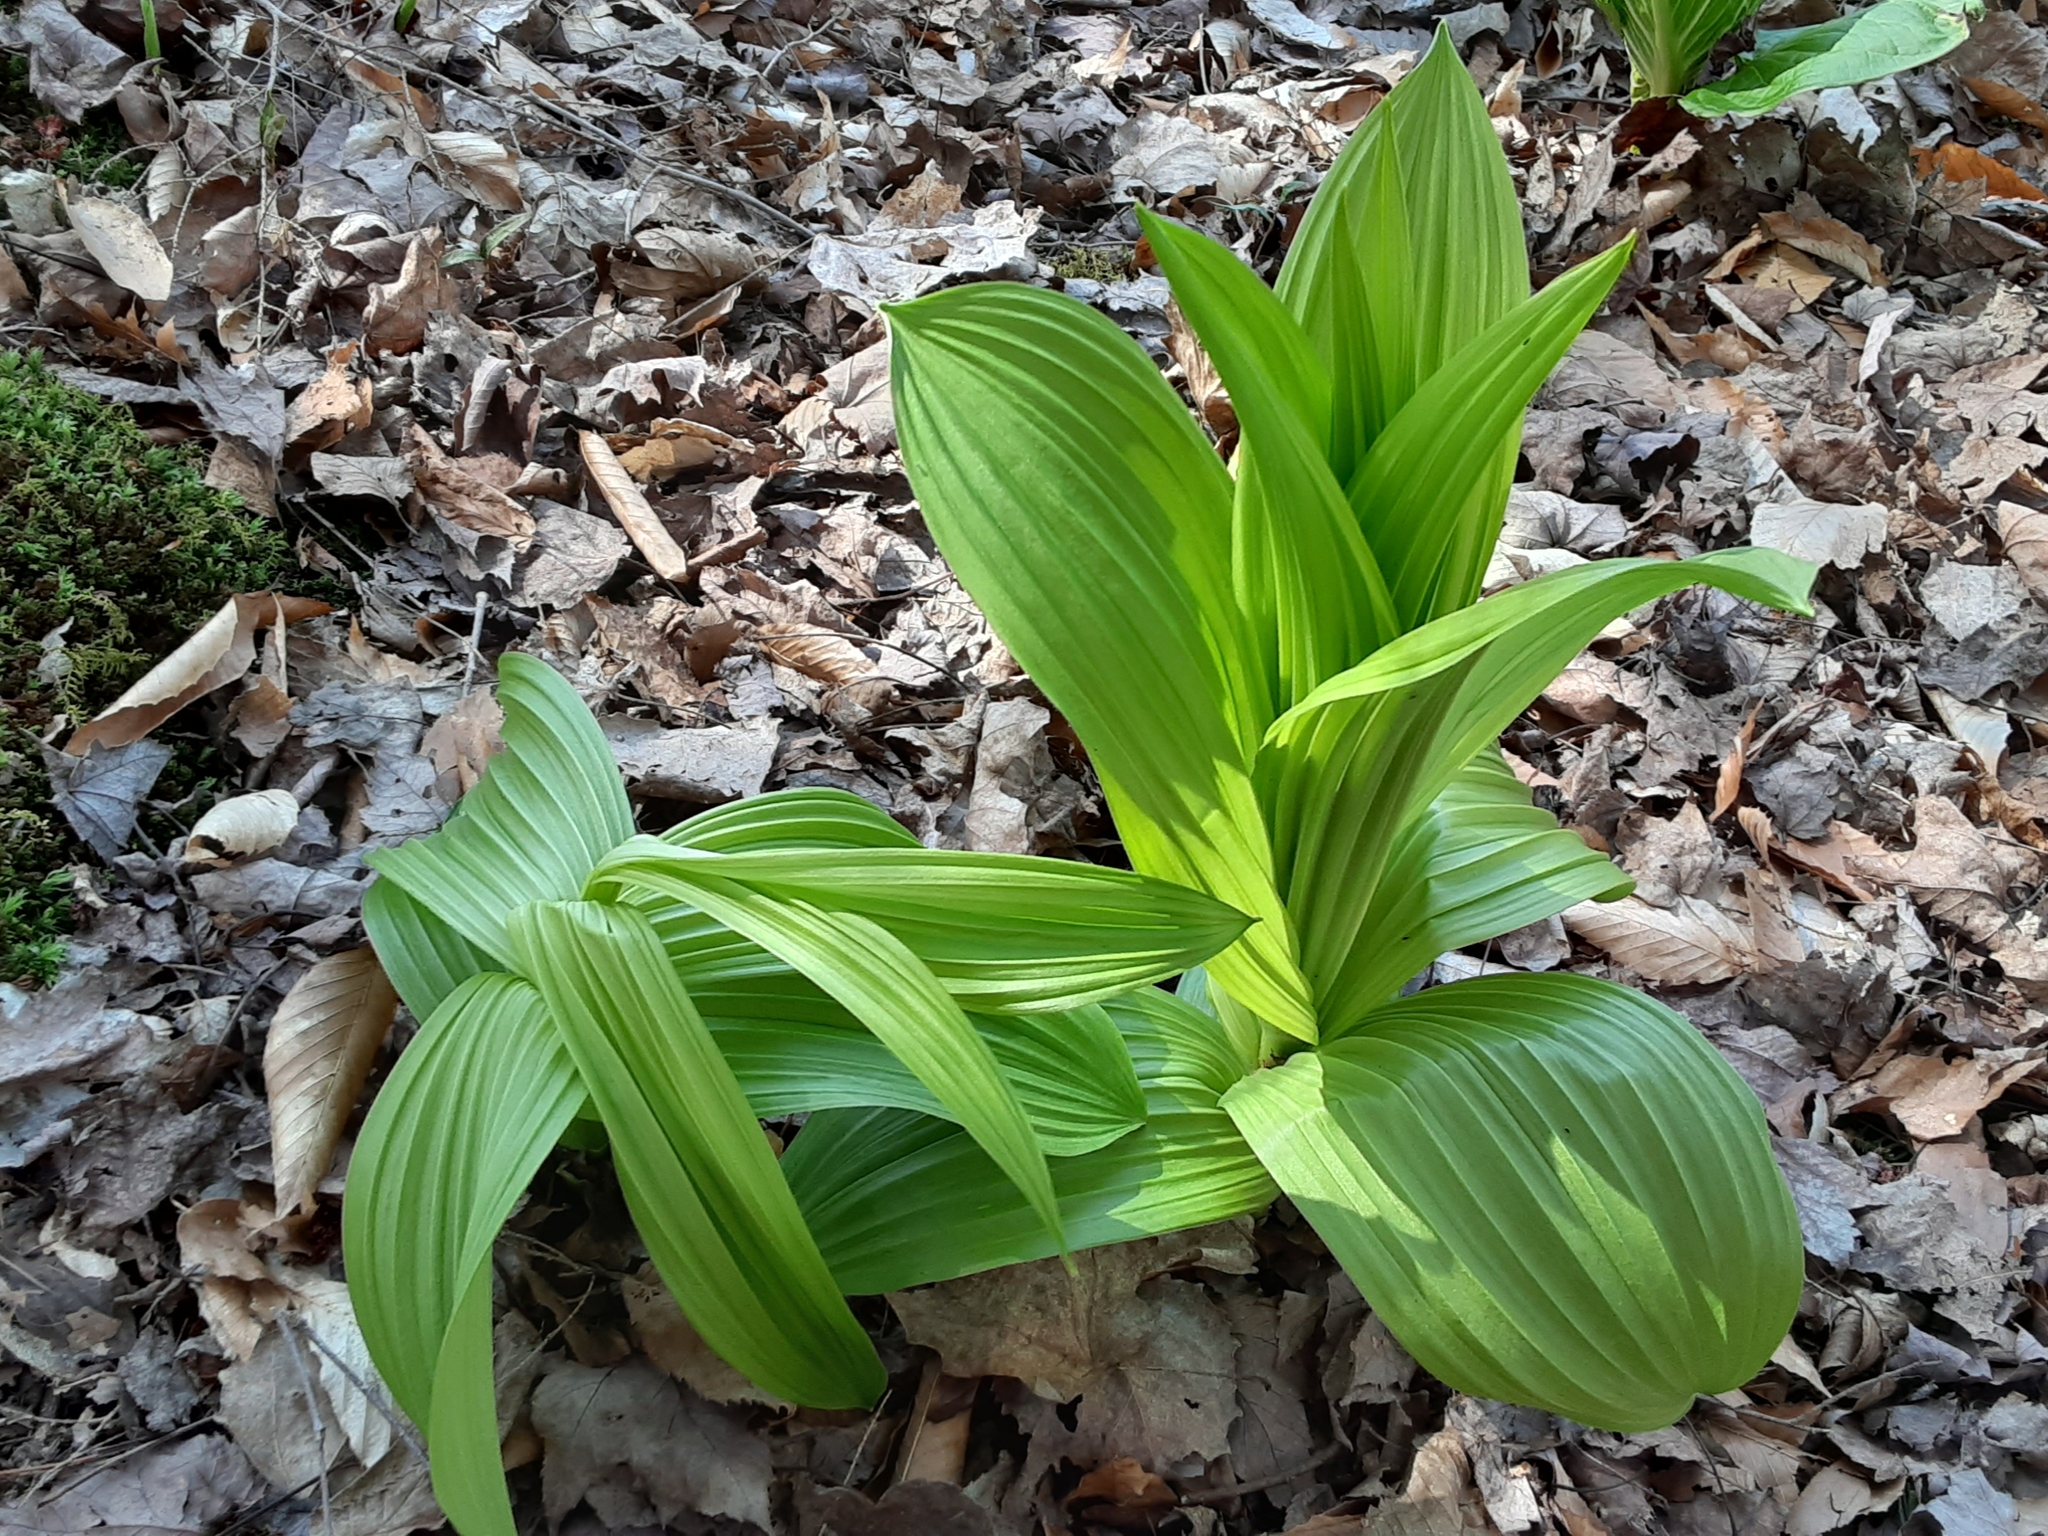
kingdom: Plantae
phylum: Tracheophyta
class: Liliopsida
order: Liliales
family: Melanthiaceae
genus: Veratrum
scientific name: Veratrum viride
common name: American false hellebore
